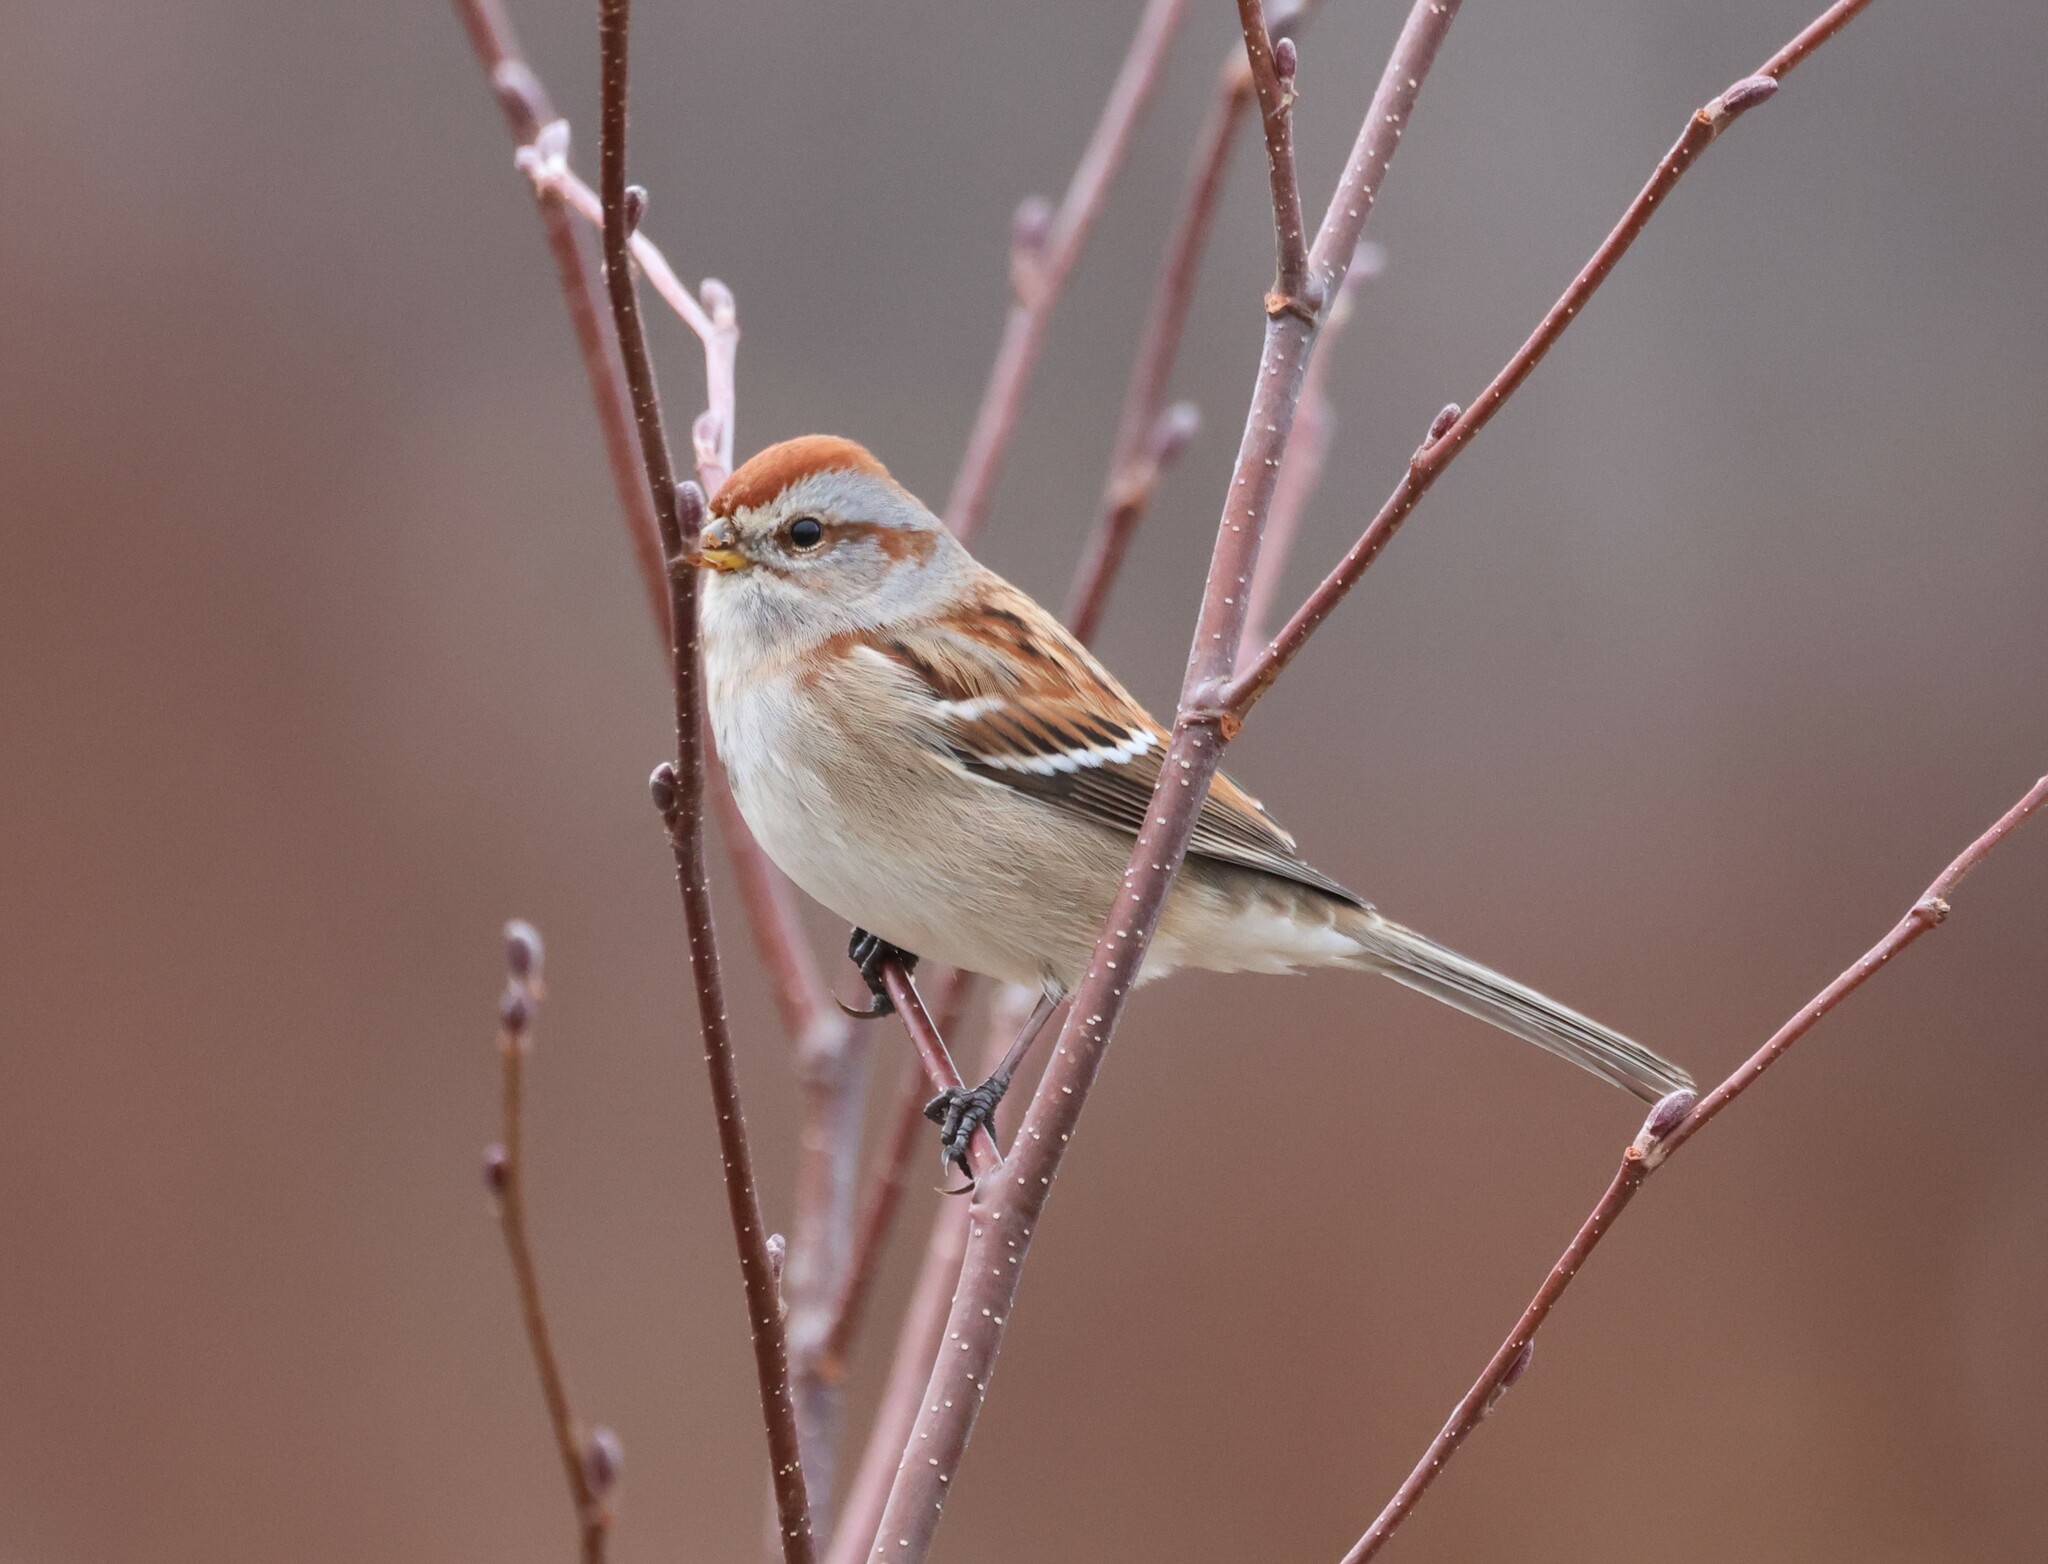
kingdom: Animalia
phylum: Chordata
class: Aves
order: Passeriformes
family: Passerellidae
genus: Spizelloides
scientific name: Spizelloides arborea
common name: American tree sparrow
